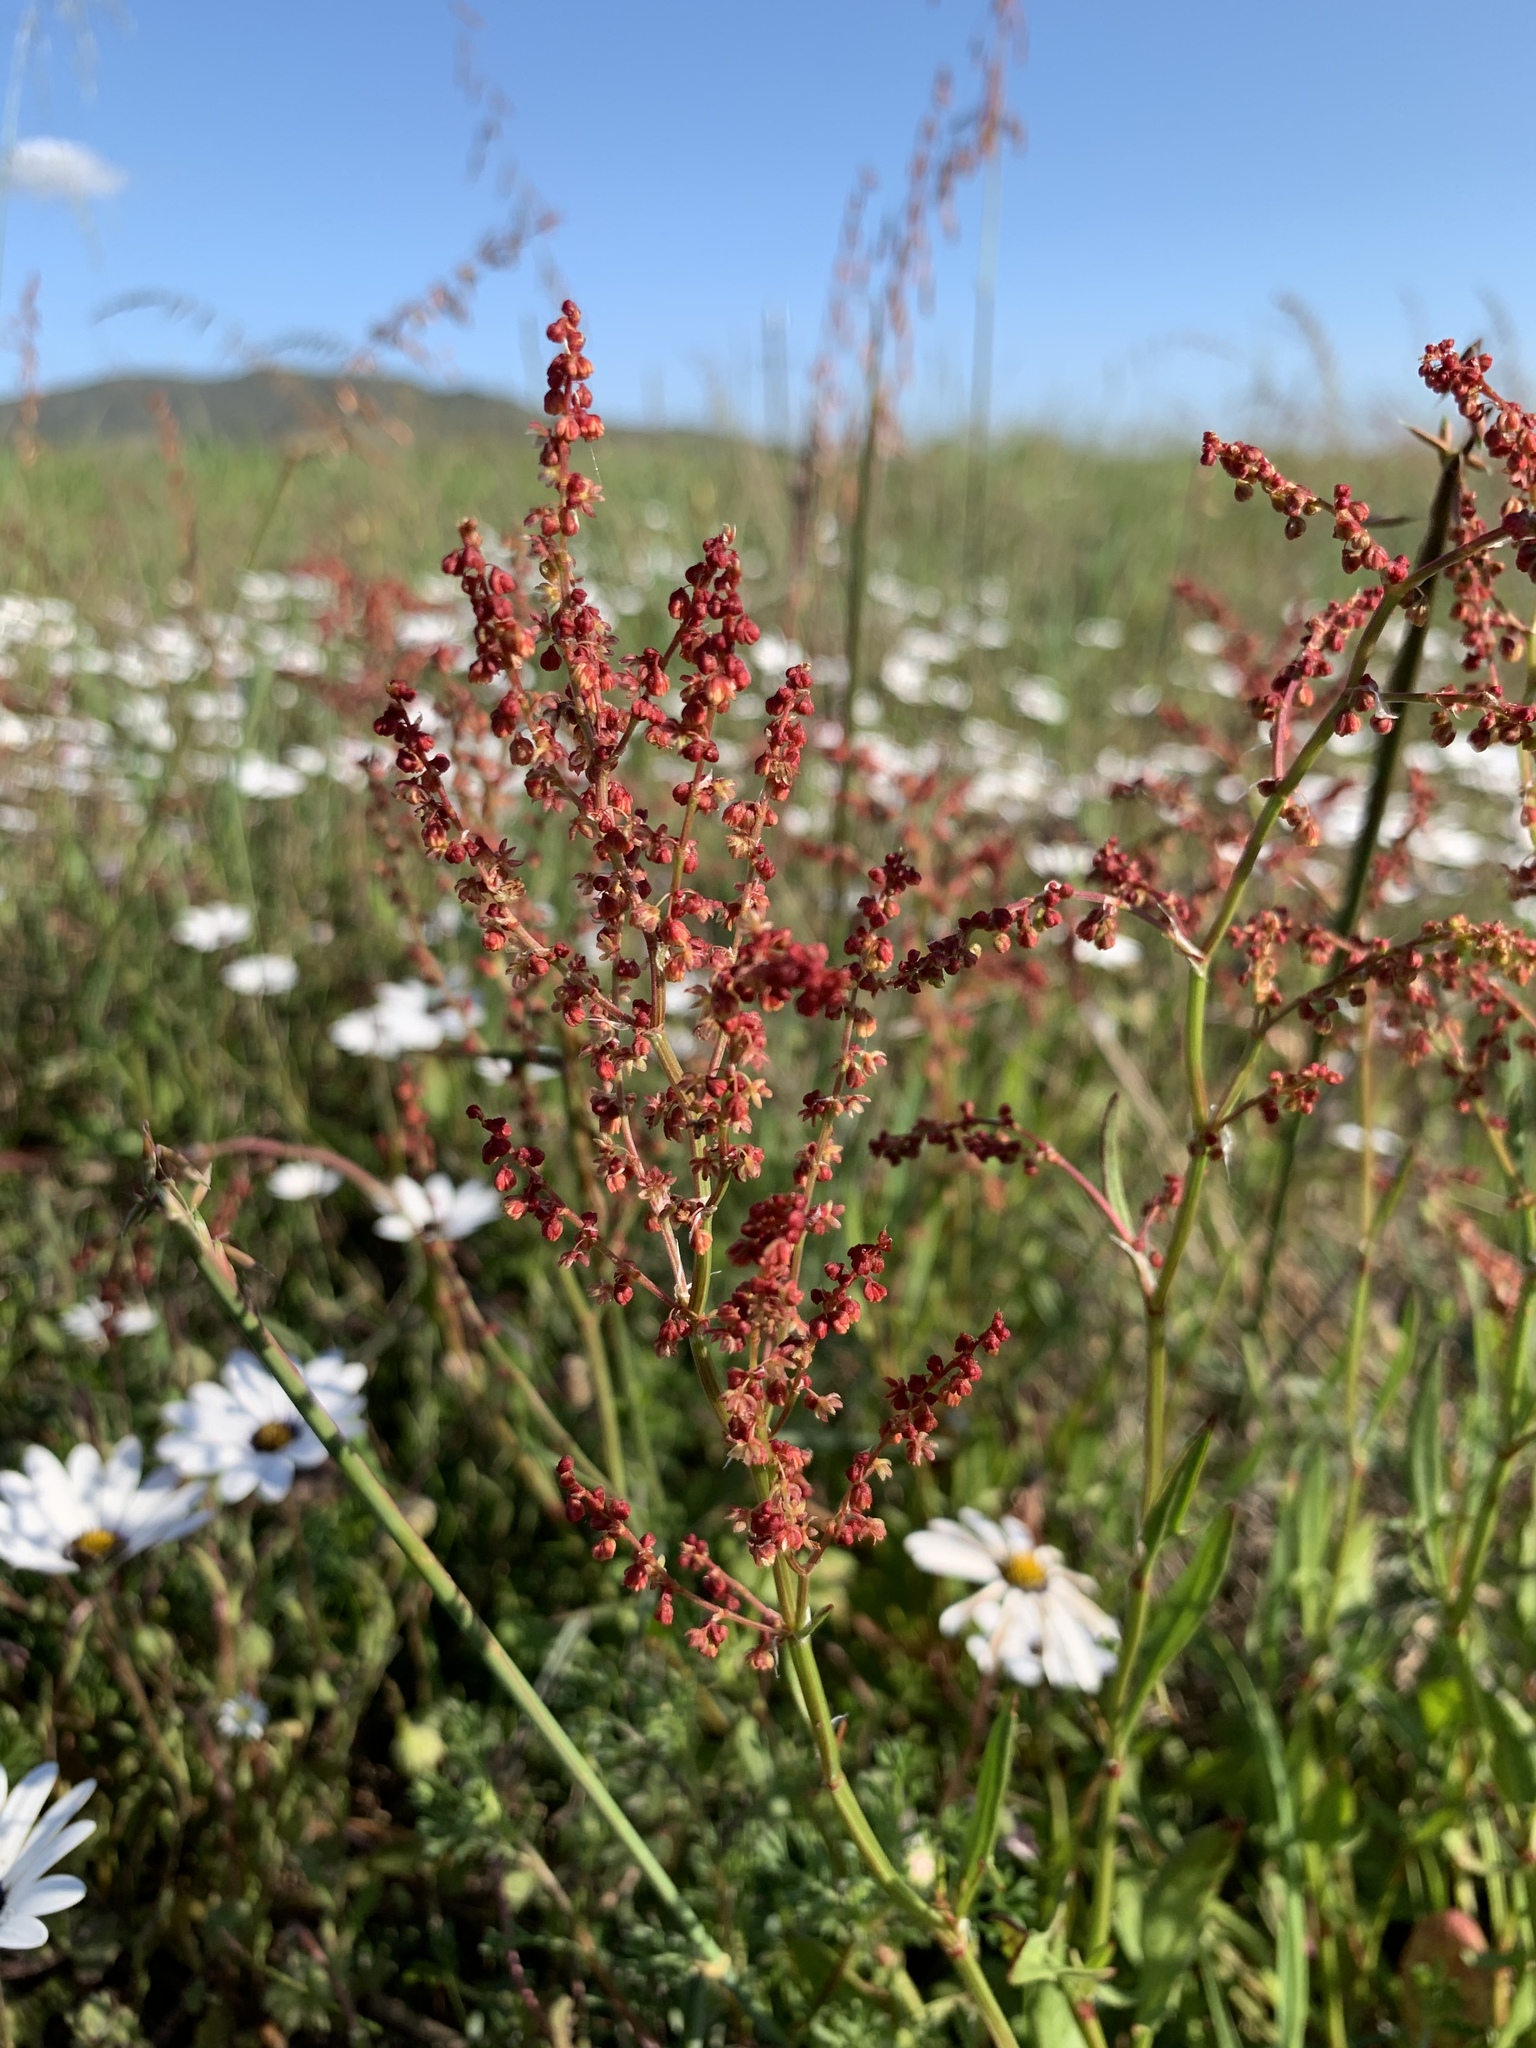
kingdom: Plantae
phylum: Tracheophyta
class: Magnoliopsida
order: Caryophyllales
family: Polygonaceae
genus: Rumex
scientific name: Rumex acetosella
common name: Common sheep sorrel
